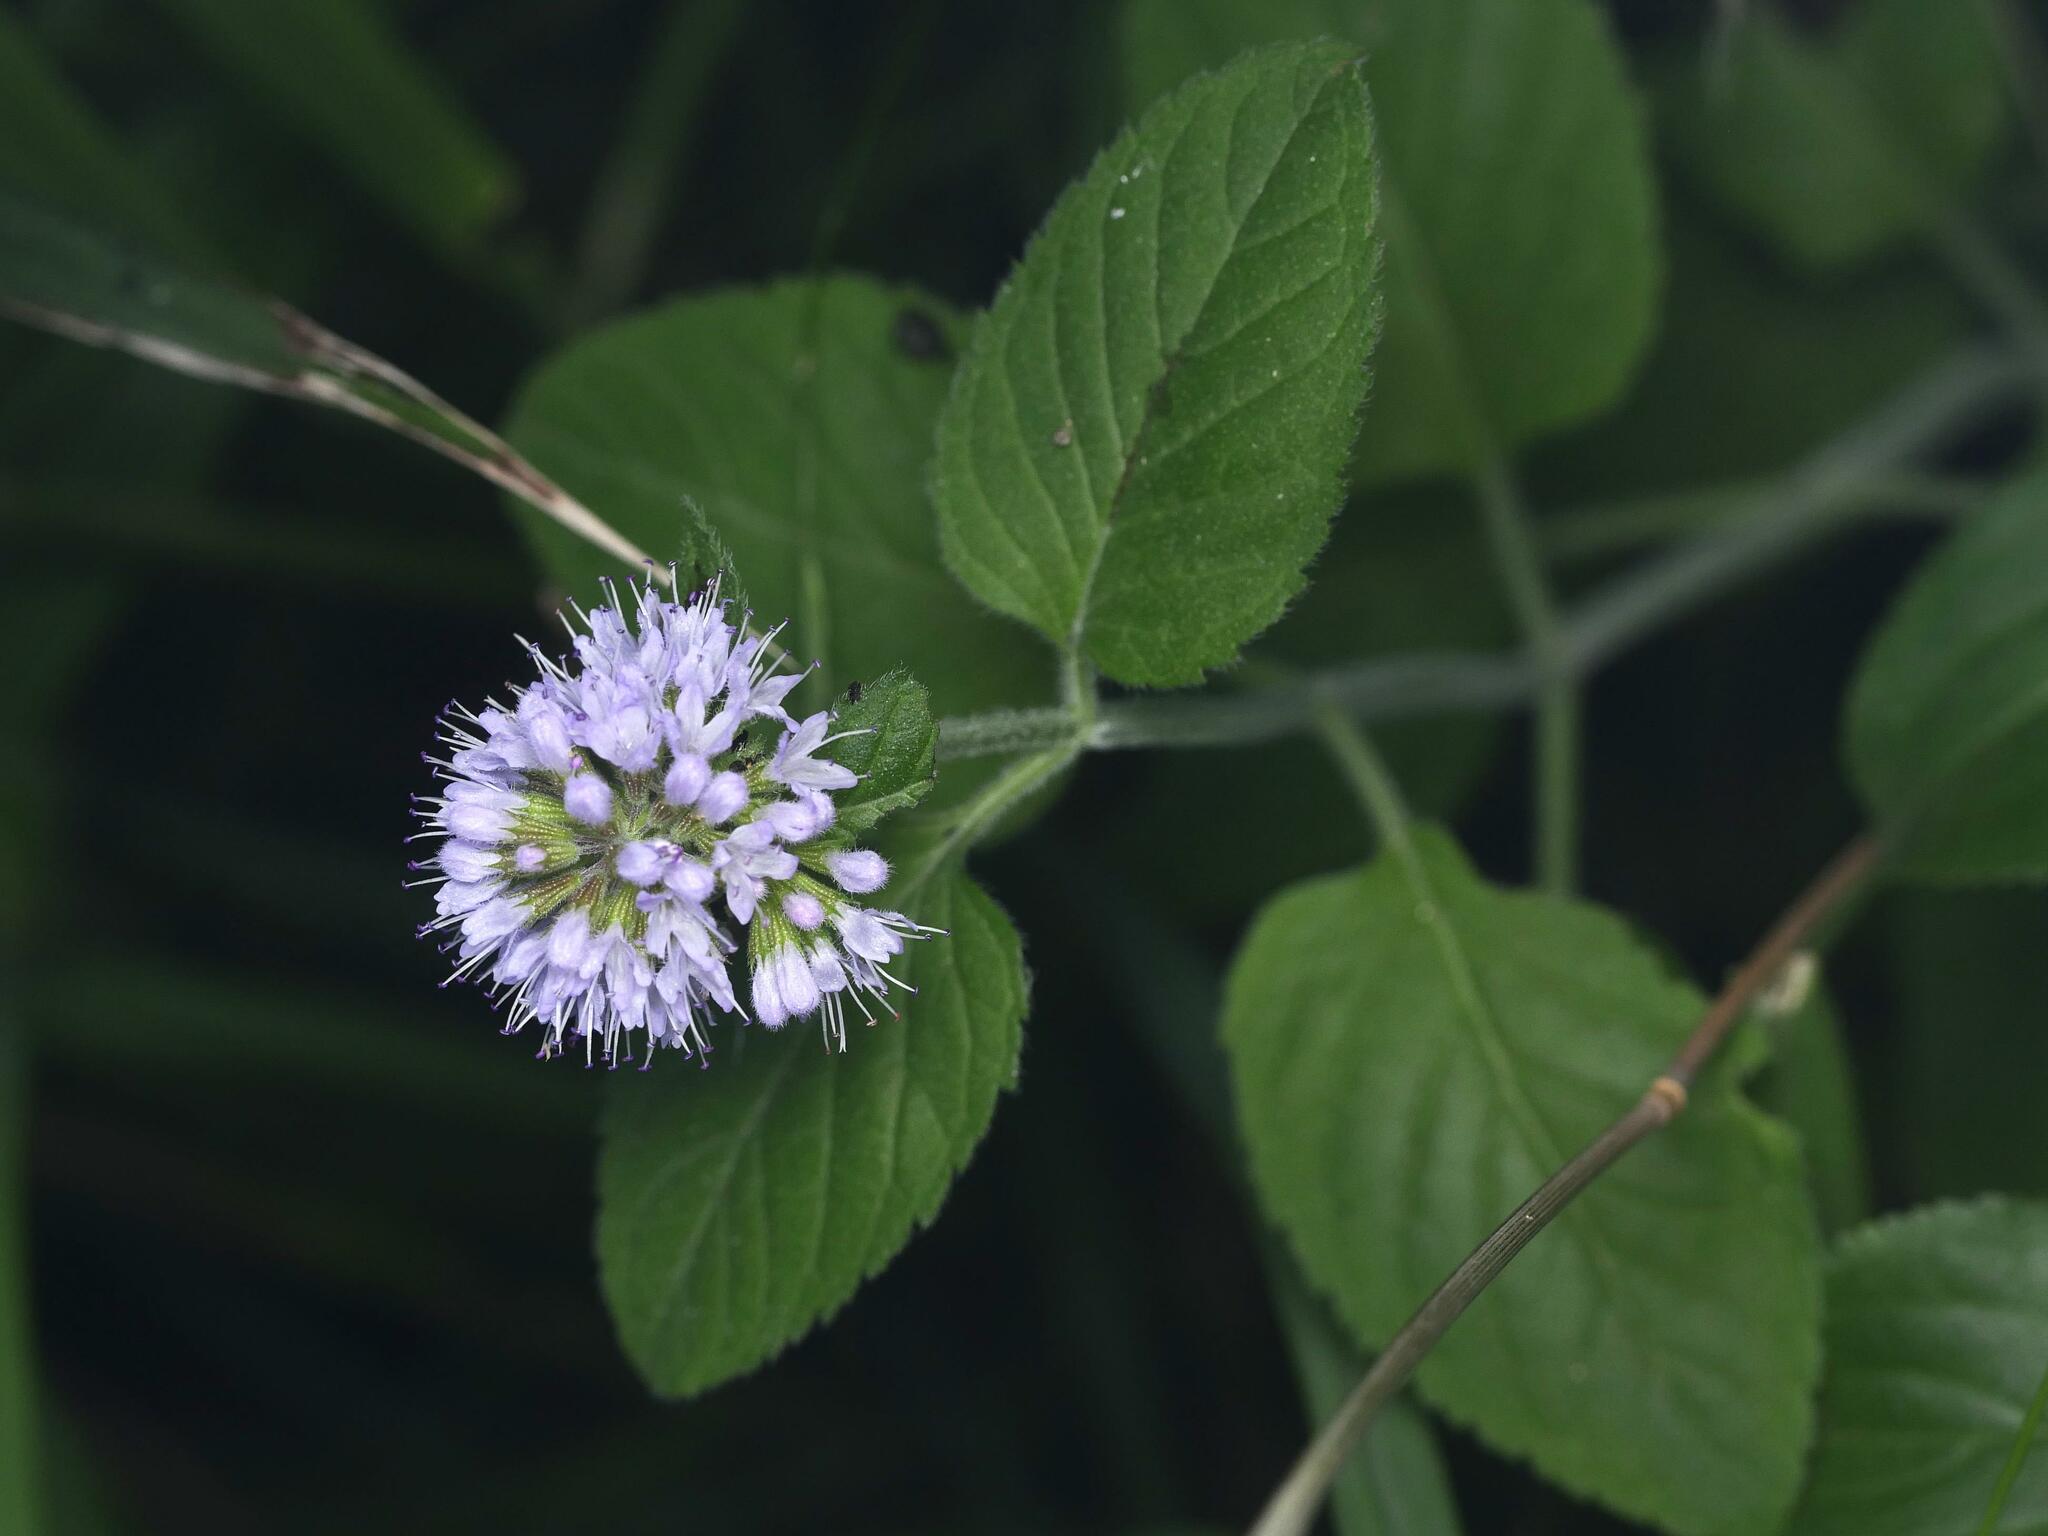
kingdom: Plantae
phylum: Tracheophyta
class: Magnoliopsida
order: Lamiales
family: Lamiaceae
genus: Mentha
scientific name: Mentha aquatica
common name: Water mint
